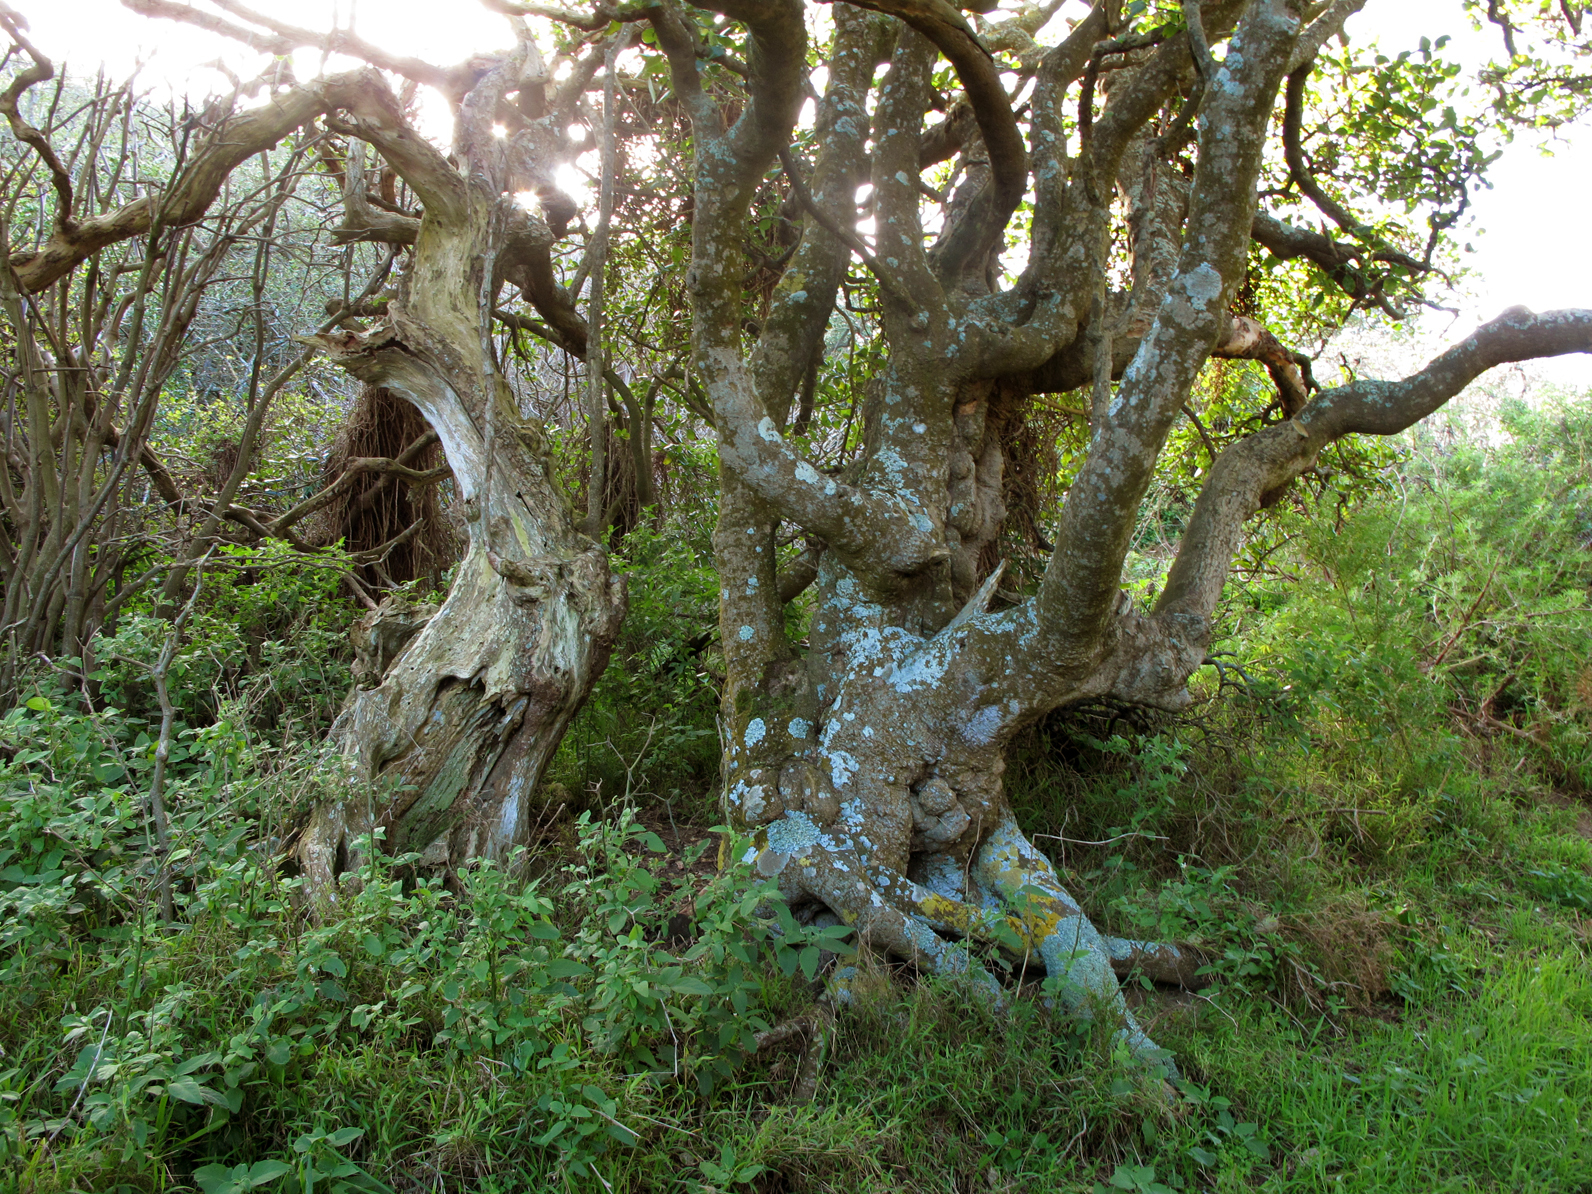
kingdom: Plantae
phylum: Tracheophyta
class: Magnoliopsida
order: Gentianales
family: Rubiaceae
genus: Coprosma
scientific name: Coprosma repens
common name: Tree bedstraw
